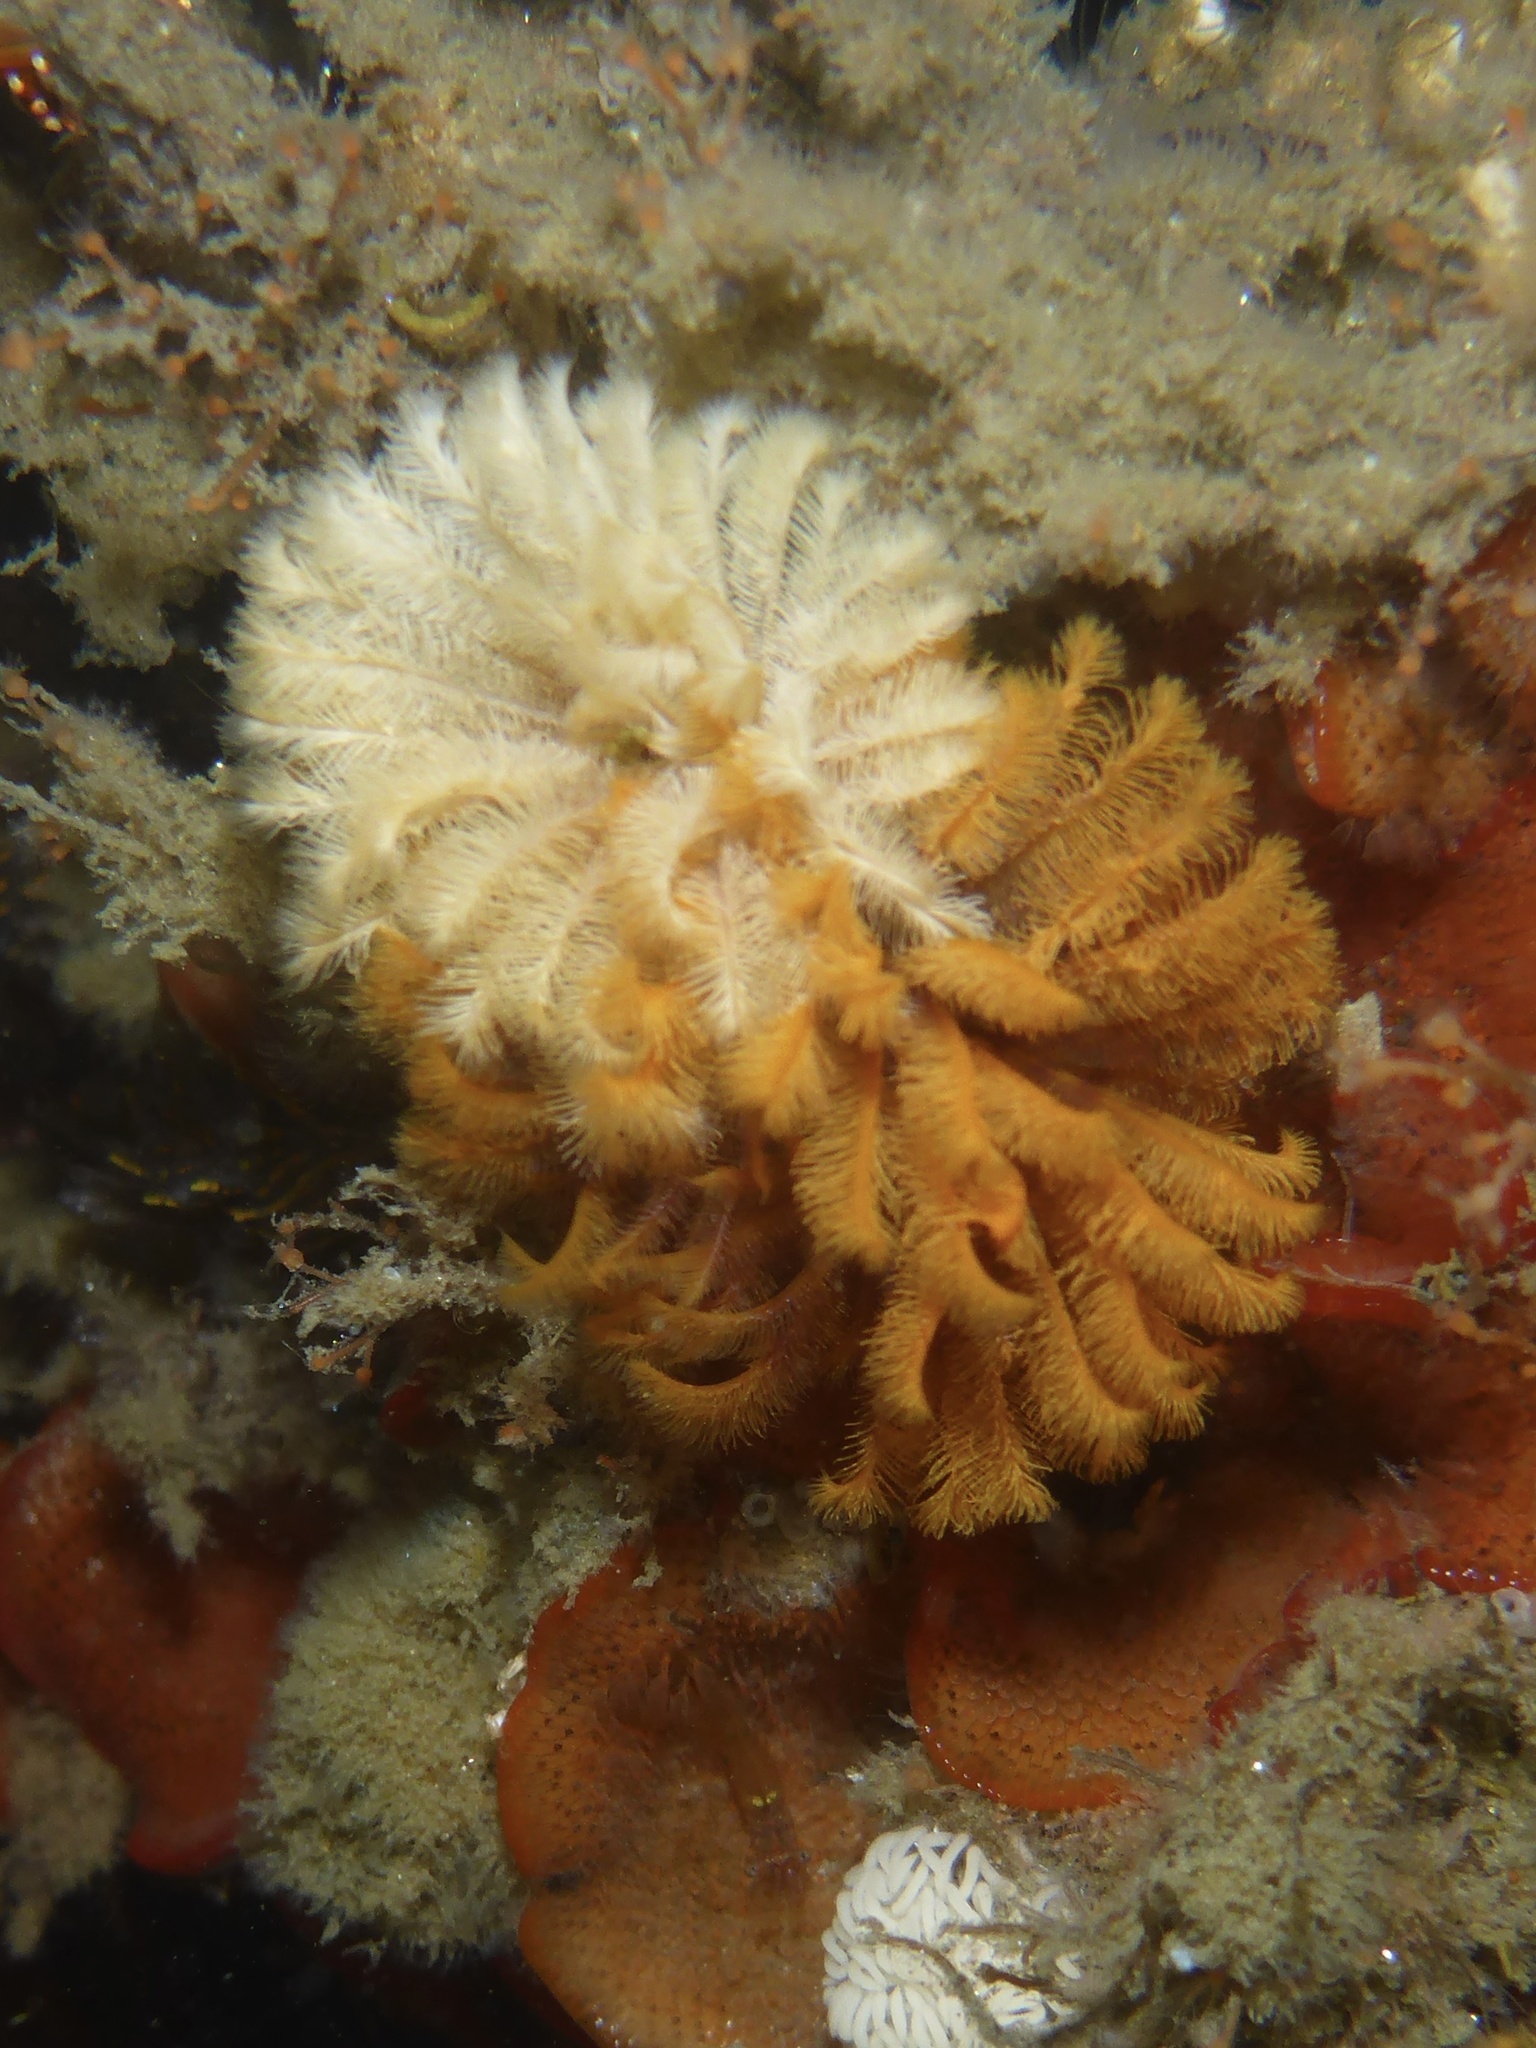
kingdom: Animalia
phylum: Annelida
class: Polychaeta
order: Sabellida
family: Sabellidae
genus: Eudistylia
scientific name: Eudistylia polymorpha
